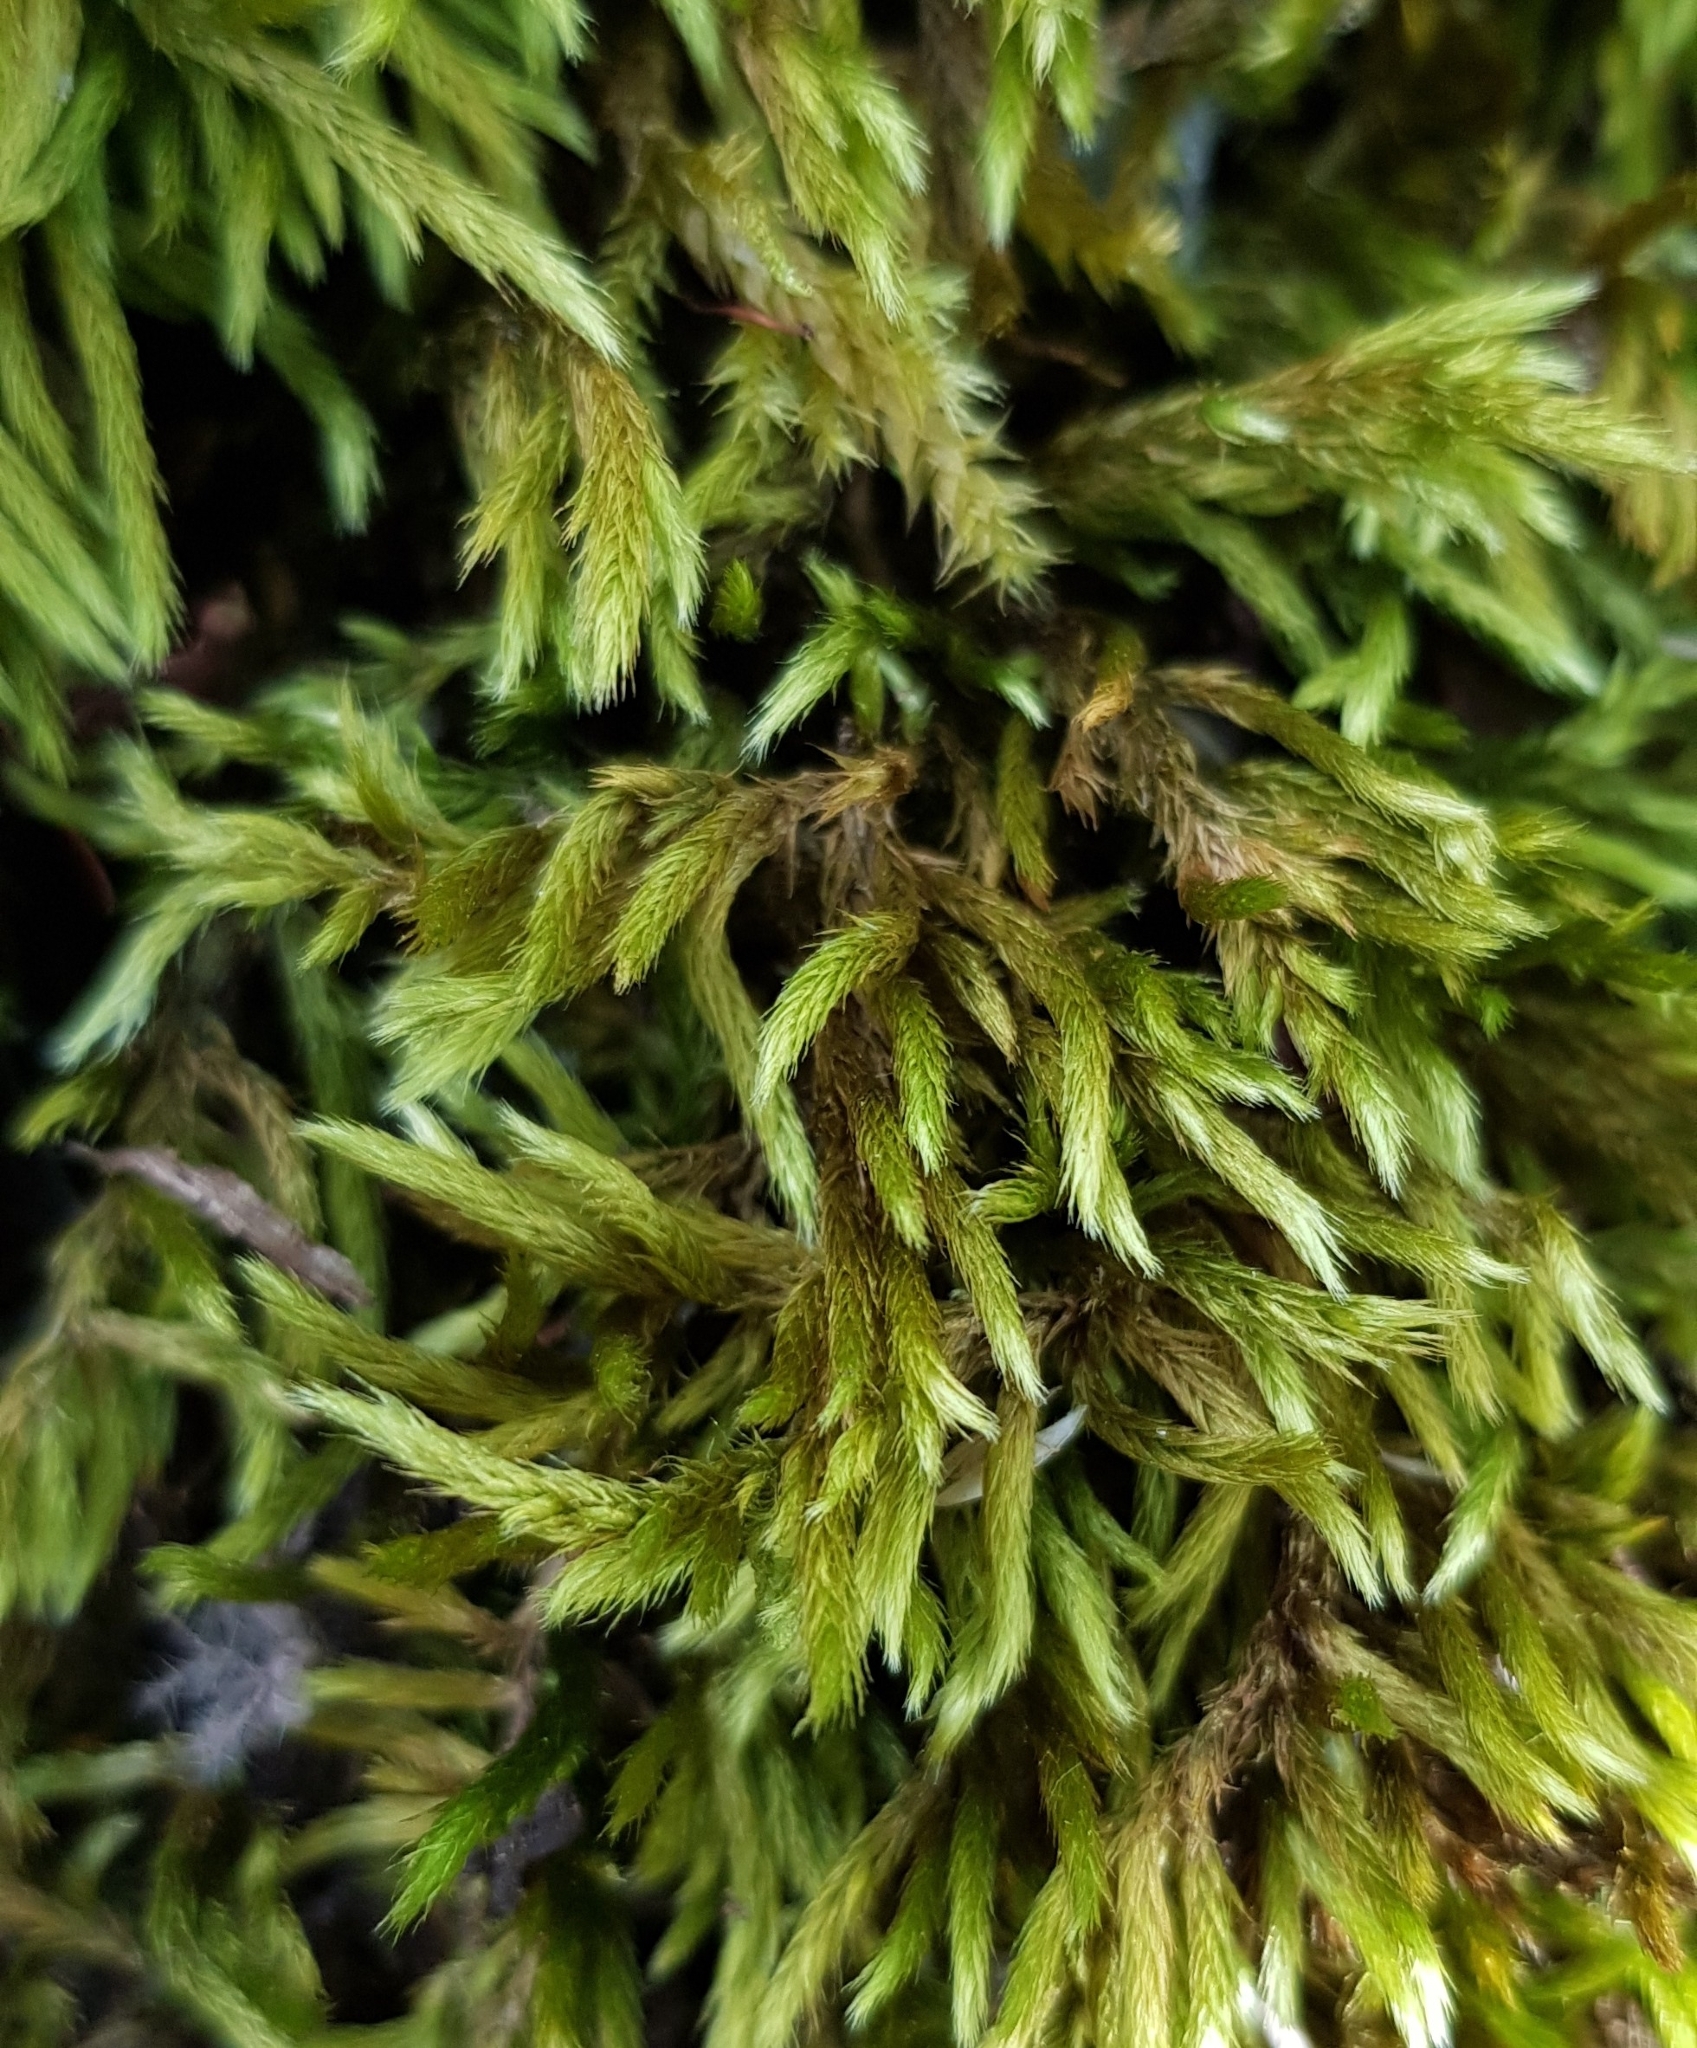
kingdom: Plantae
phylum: Bryophyta
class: Bryopsida
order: Hypnales
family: Brachytheciaceae
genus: Homalothecium
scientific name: Homalothecium lutescens
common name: Yellow feather-moss
